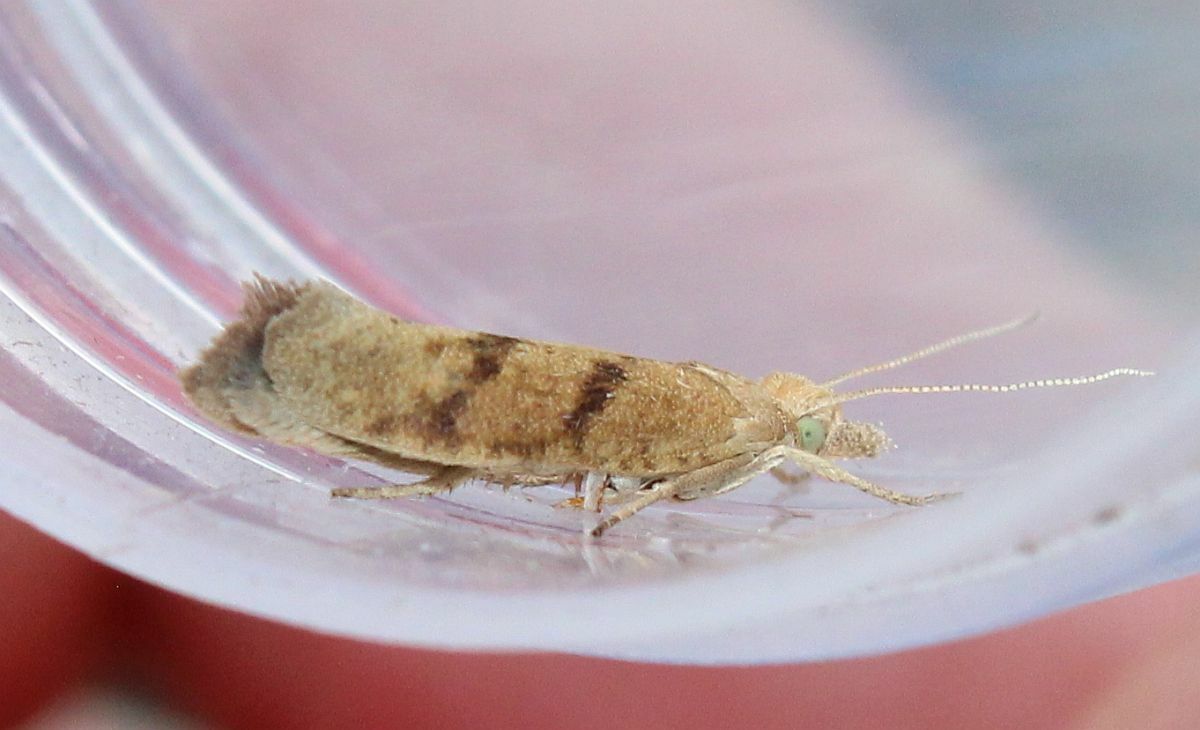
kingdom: Animalia
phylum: Arthropoda
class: Insecta
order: Lepidoptera
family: Plutellidae
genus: Ypsolophus
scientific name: Ypsolophus sylvella
